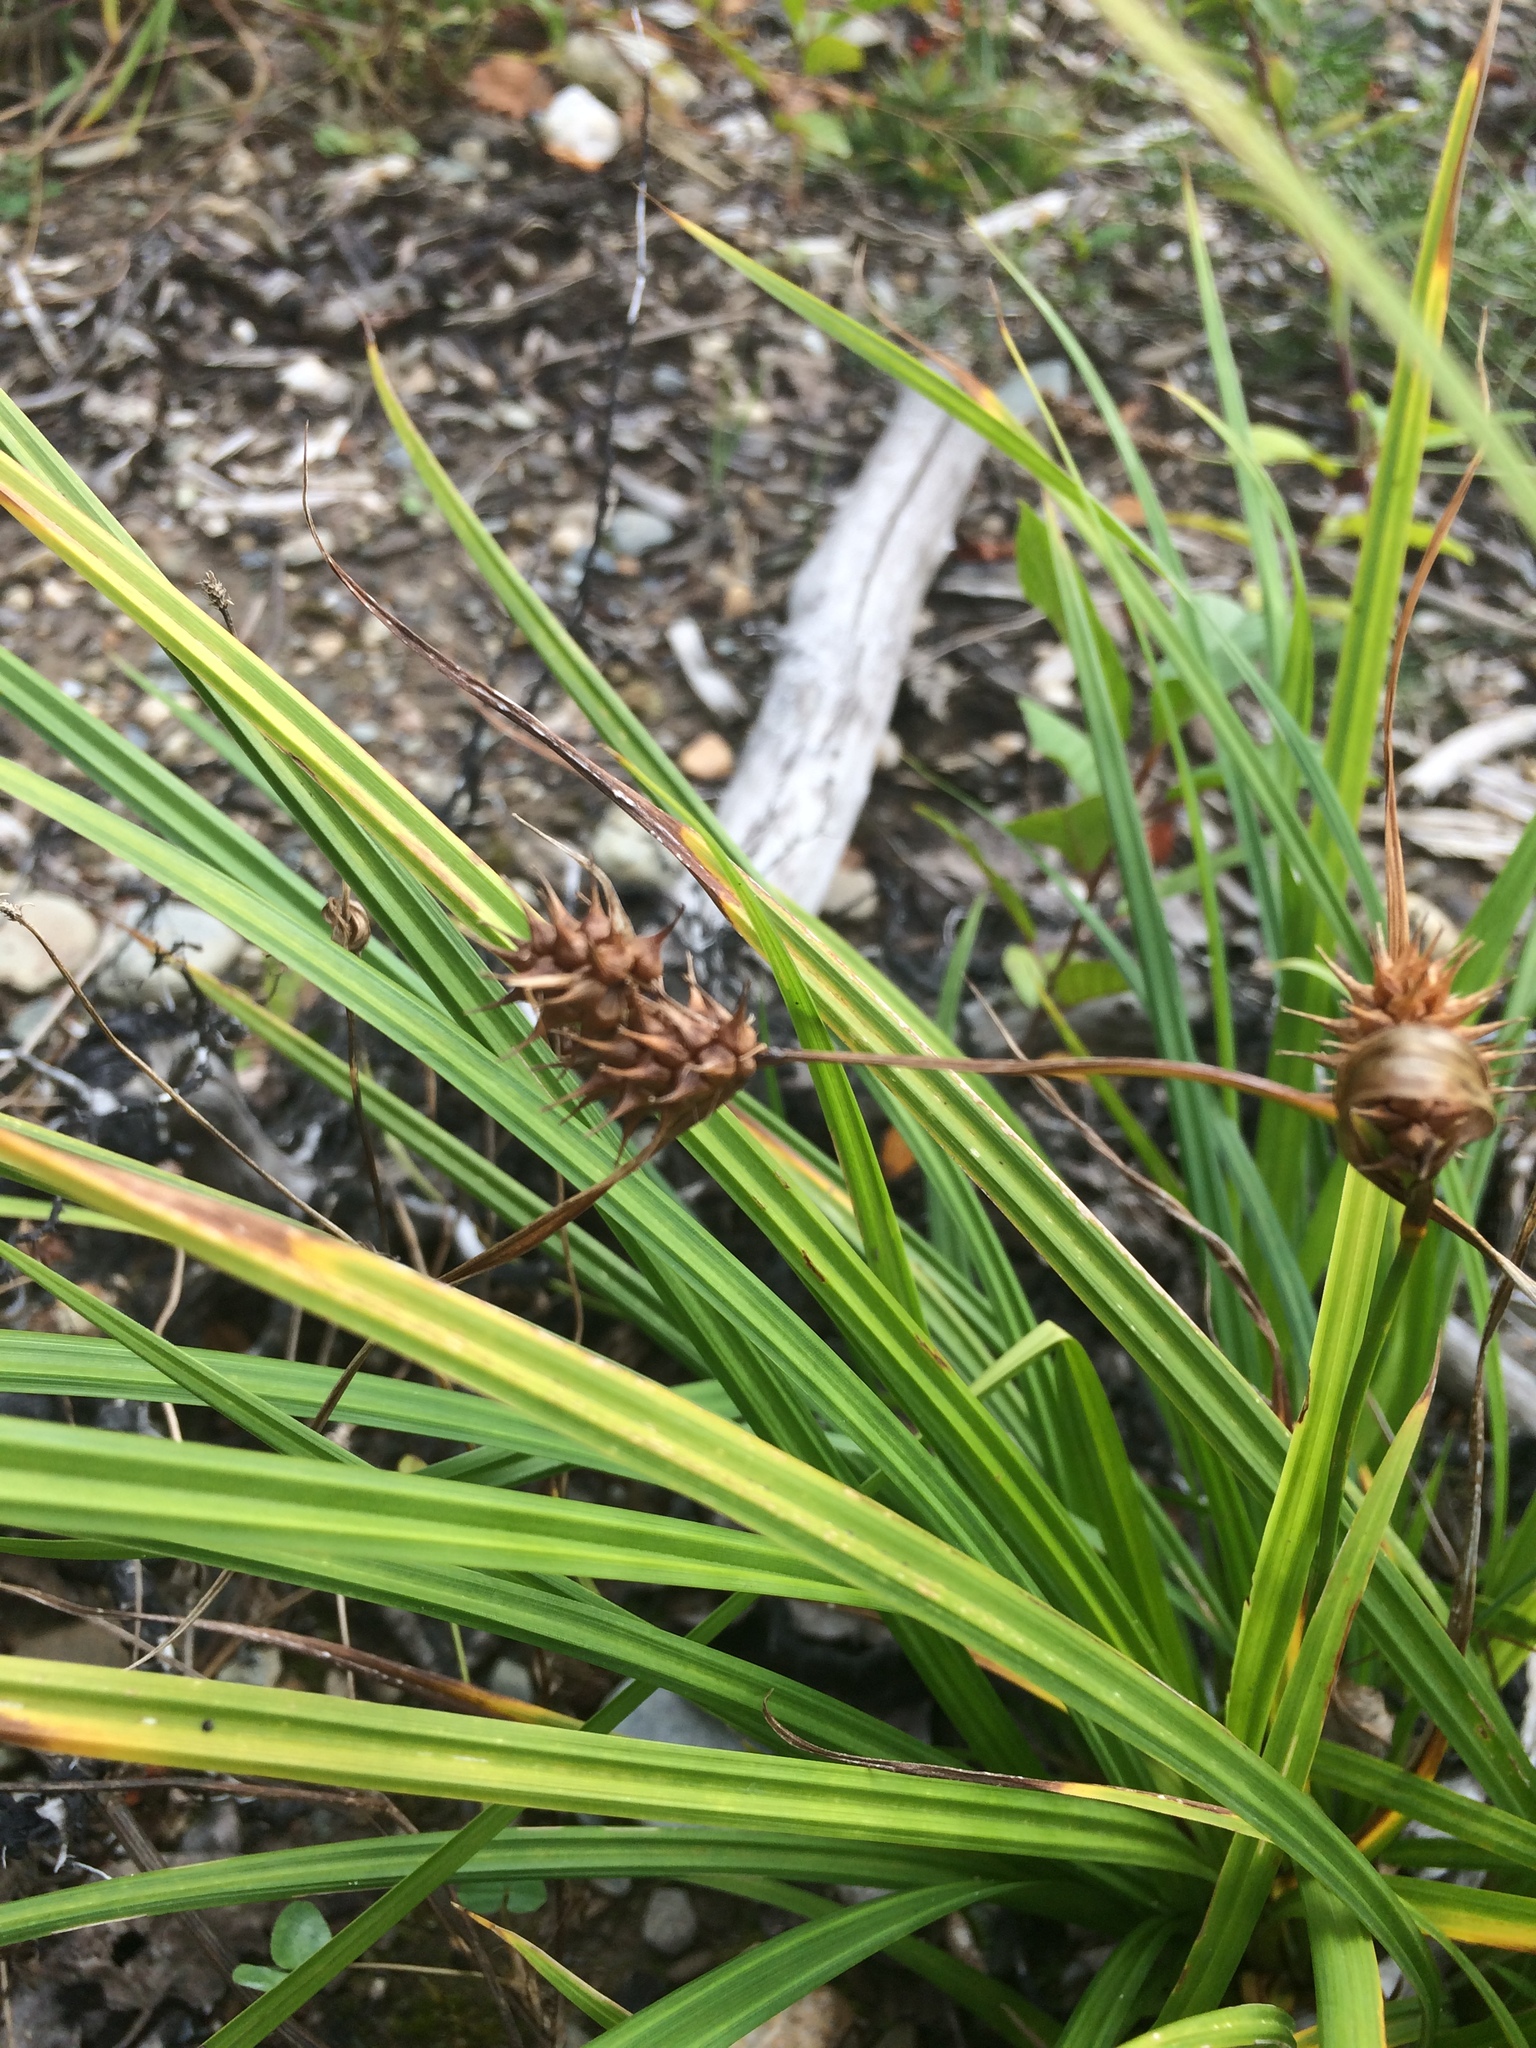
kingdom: Plantae
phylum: Tracheophyta
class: Liliopsida
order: Poales
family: Cyperaceae
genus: Carex
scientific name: Carex lurida
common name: Sallow sedge
